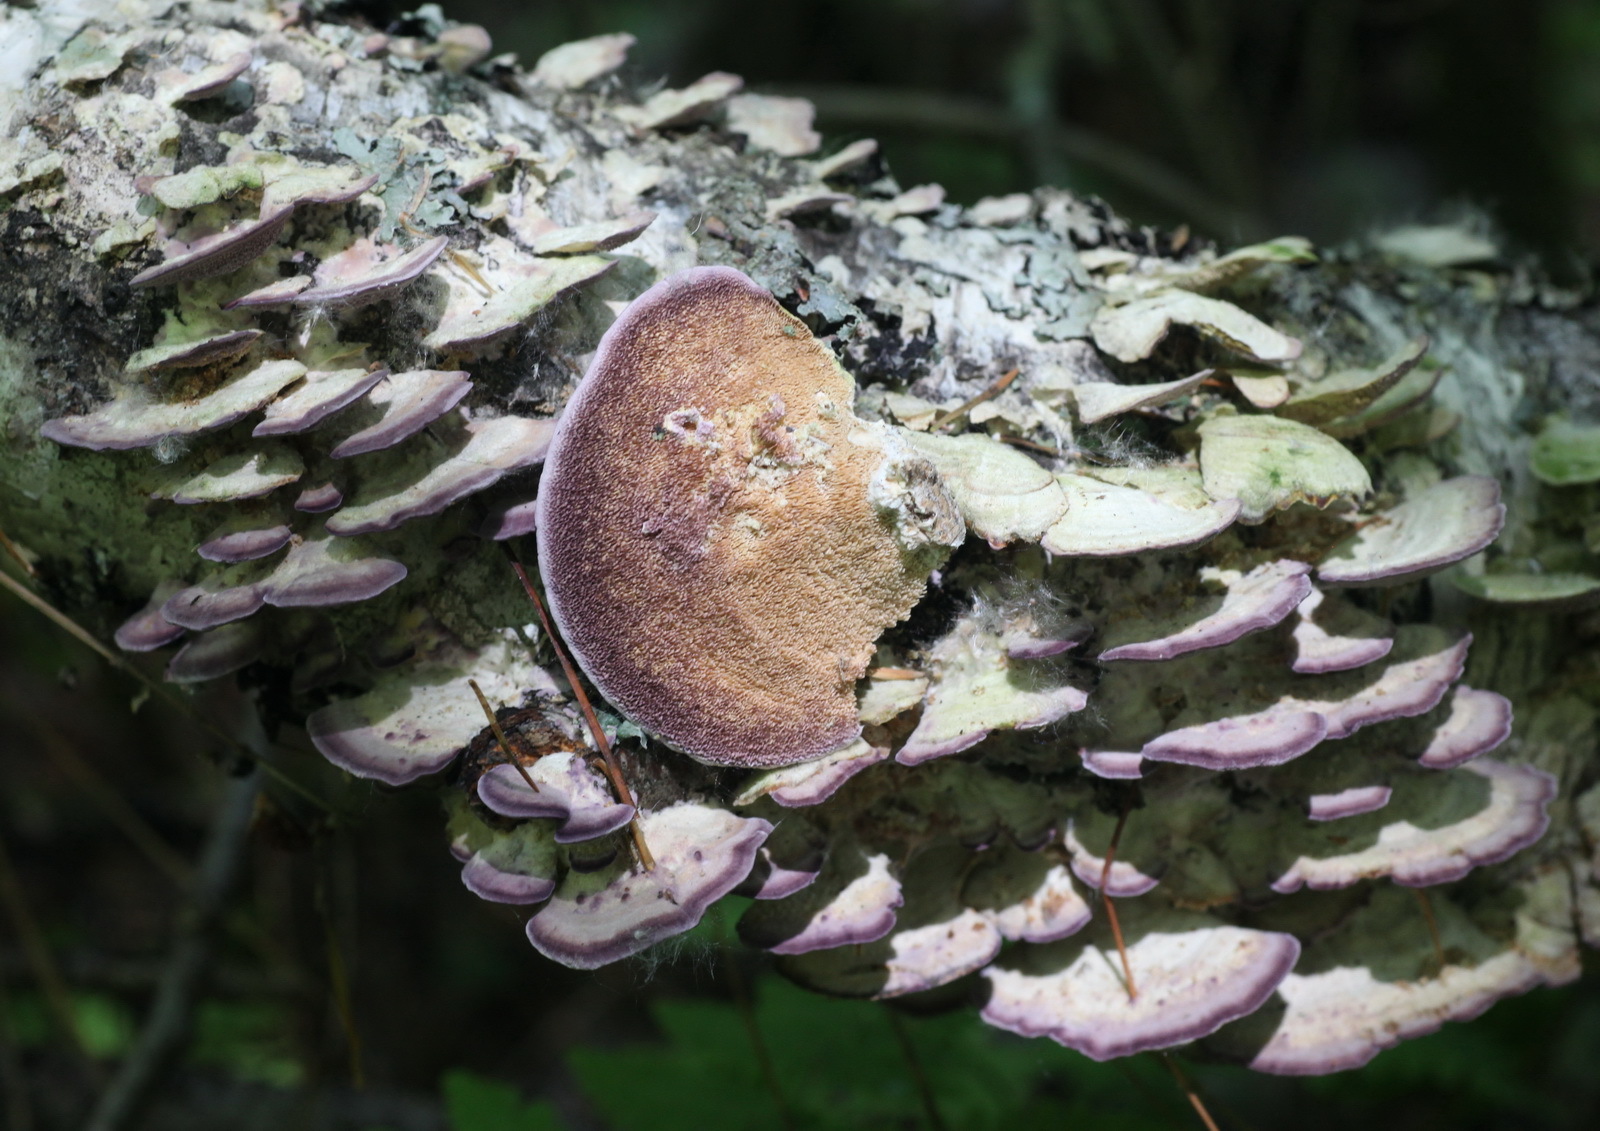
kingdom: Fungi
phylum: Basidiomycota
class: Agaricomycetes
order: Hymenochaetales
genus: Trichaptum
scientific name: Trichaptum biforme
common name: Violet-toothed polypore
